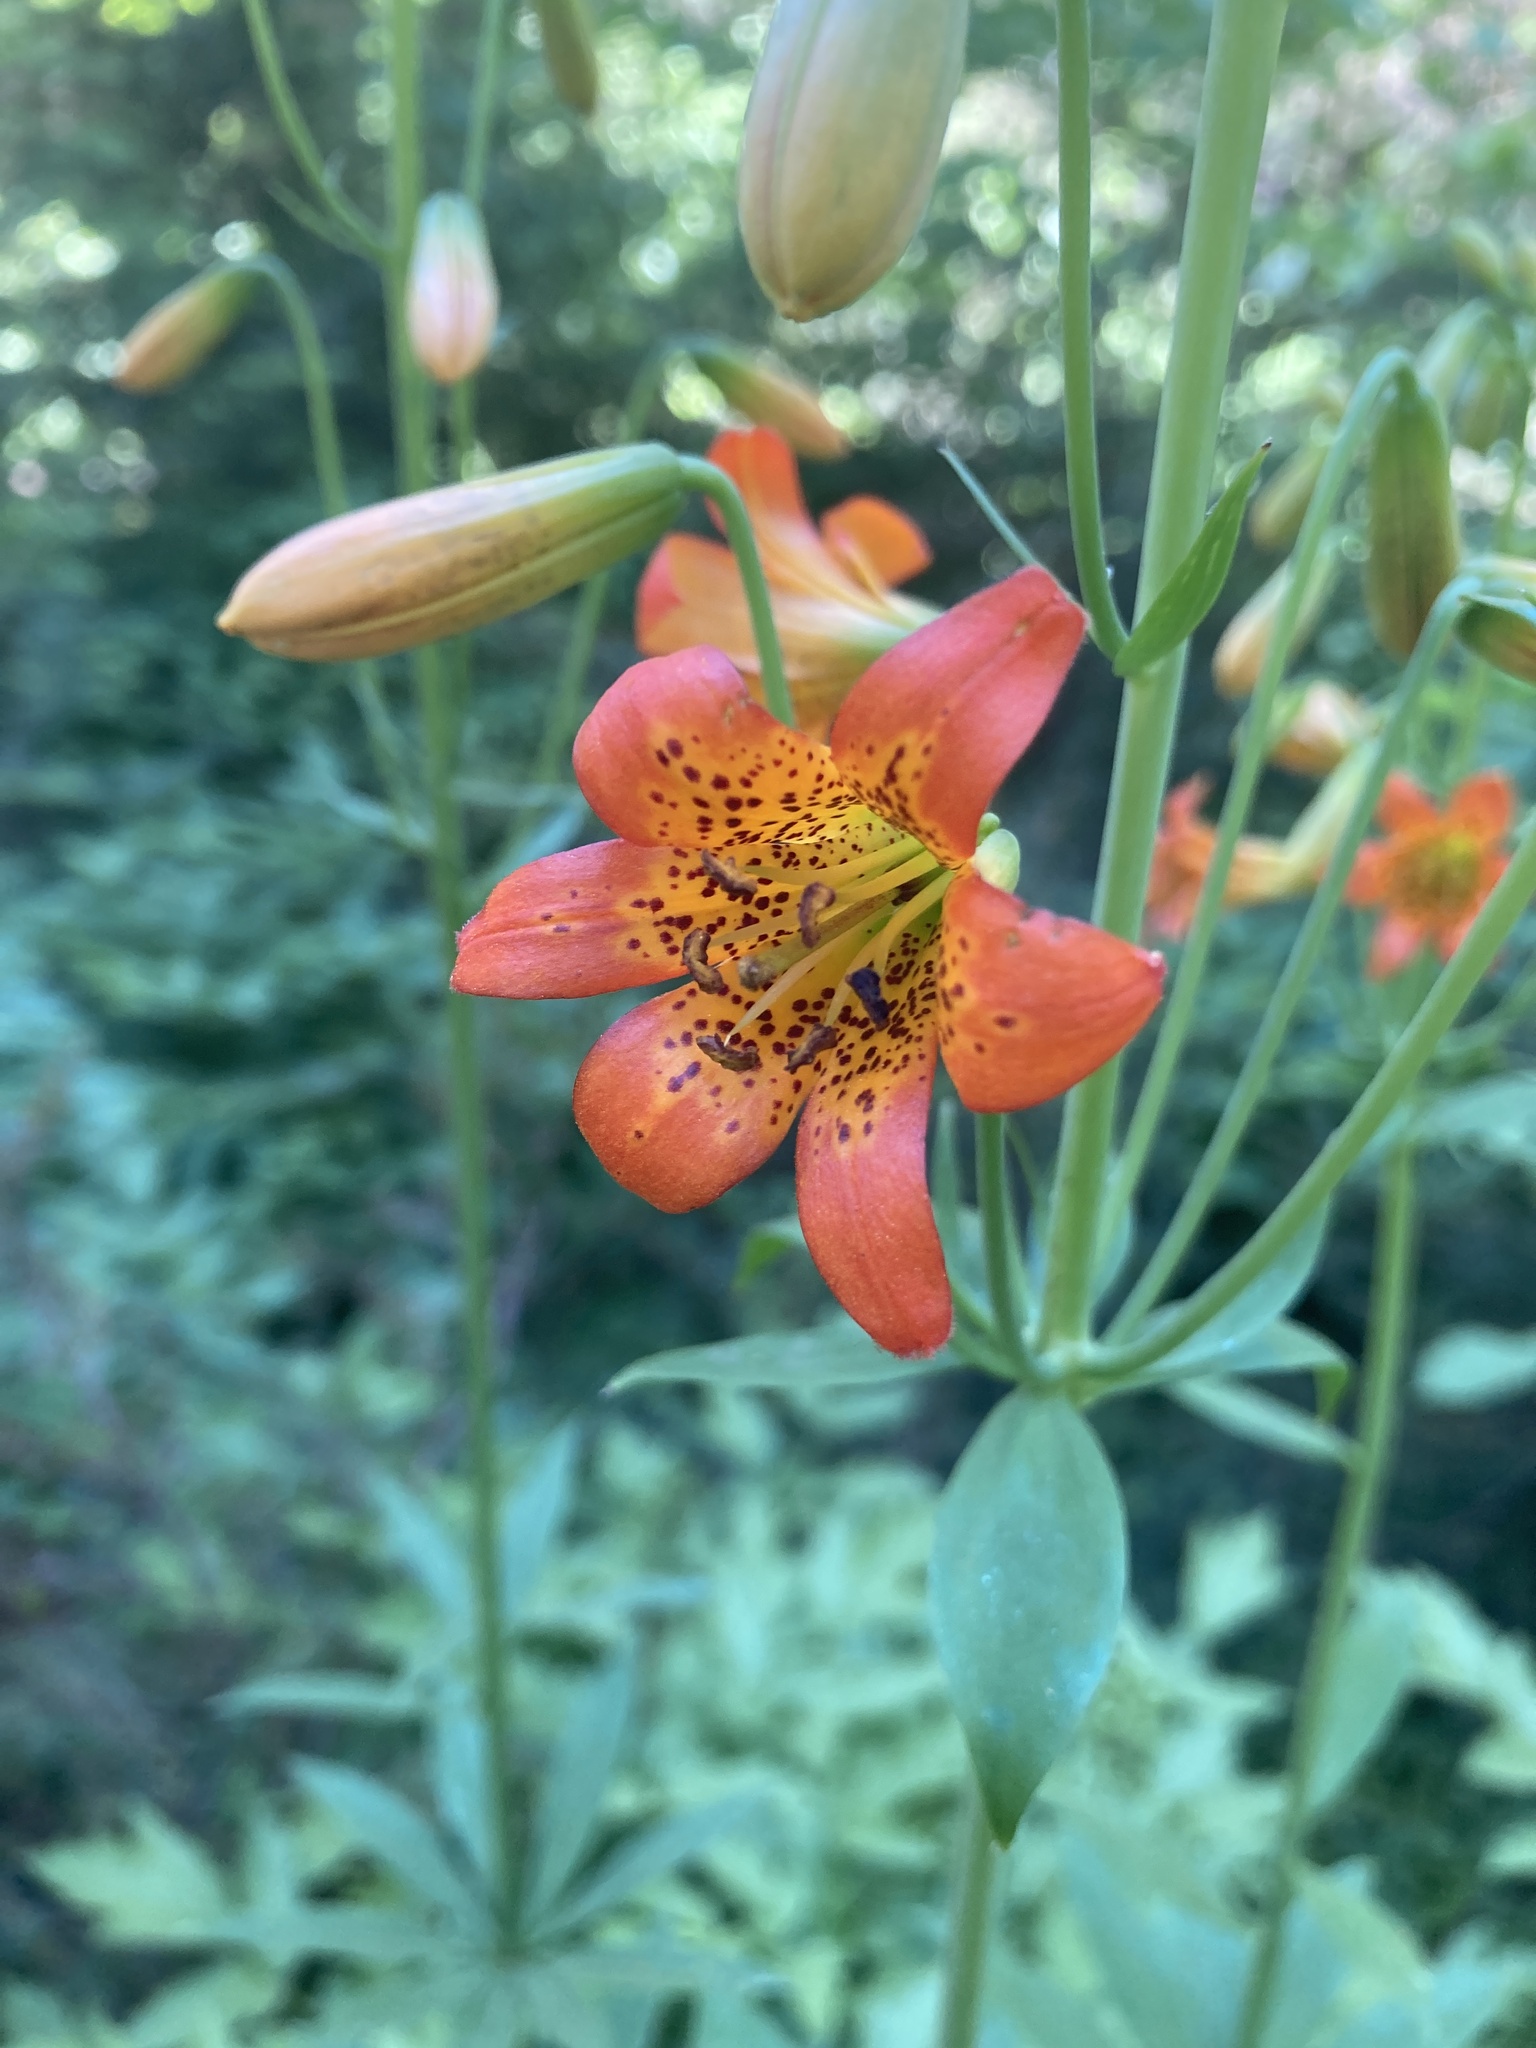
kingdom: Plantae
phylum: Tracheophyta
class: Liliopsida
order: Liliales
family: Liliaceae
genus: Lilium
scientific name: Lilium parvum
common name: Alpine lily
